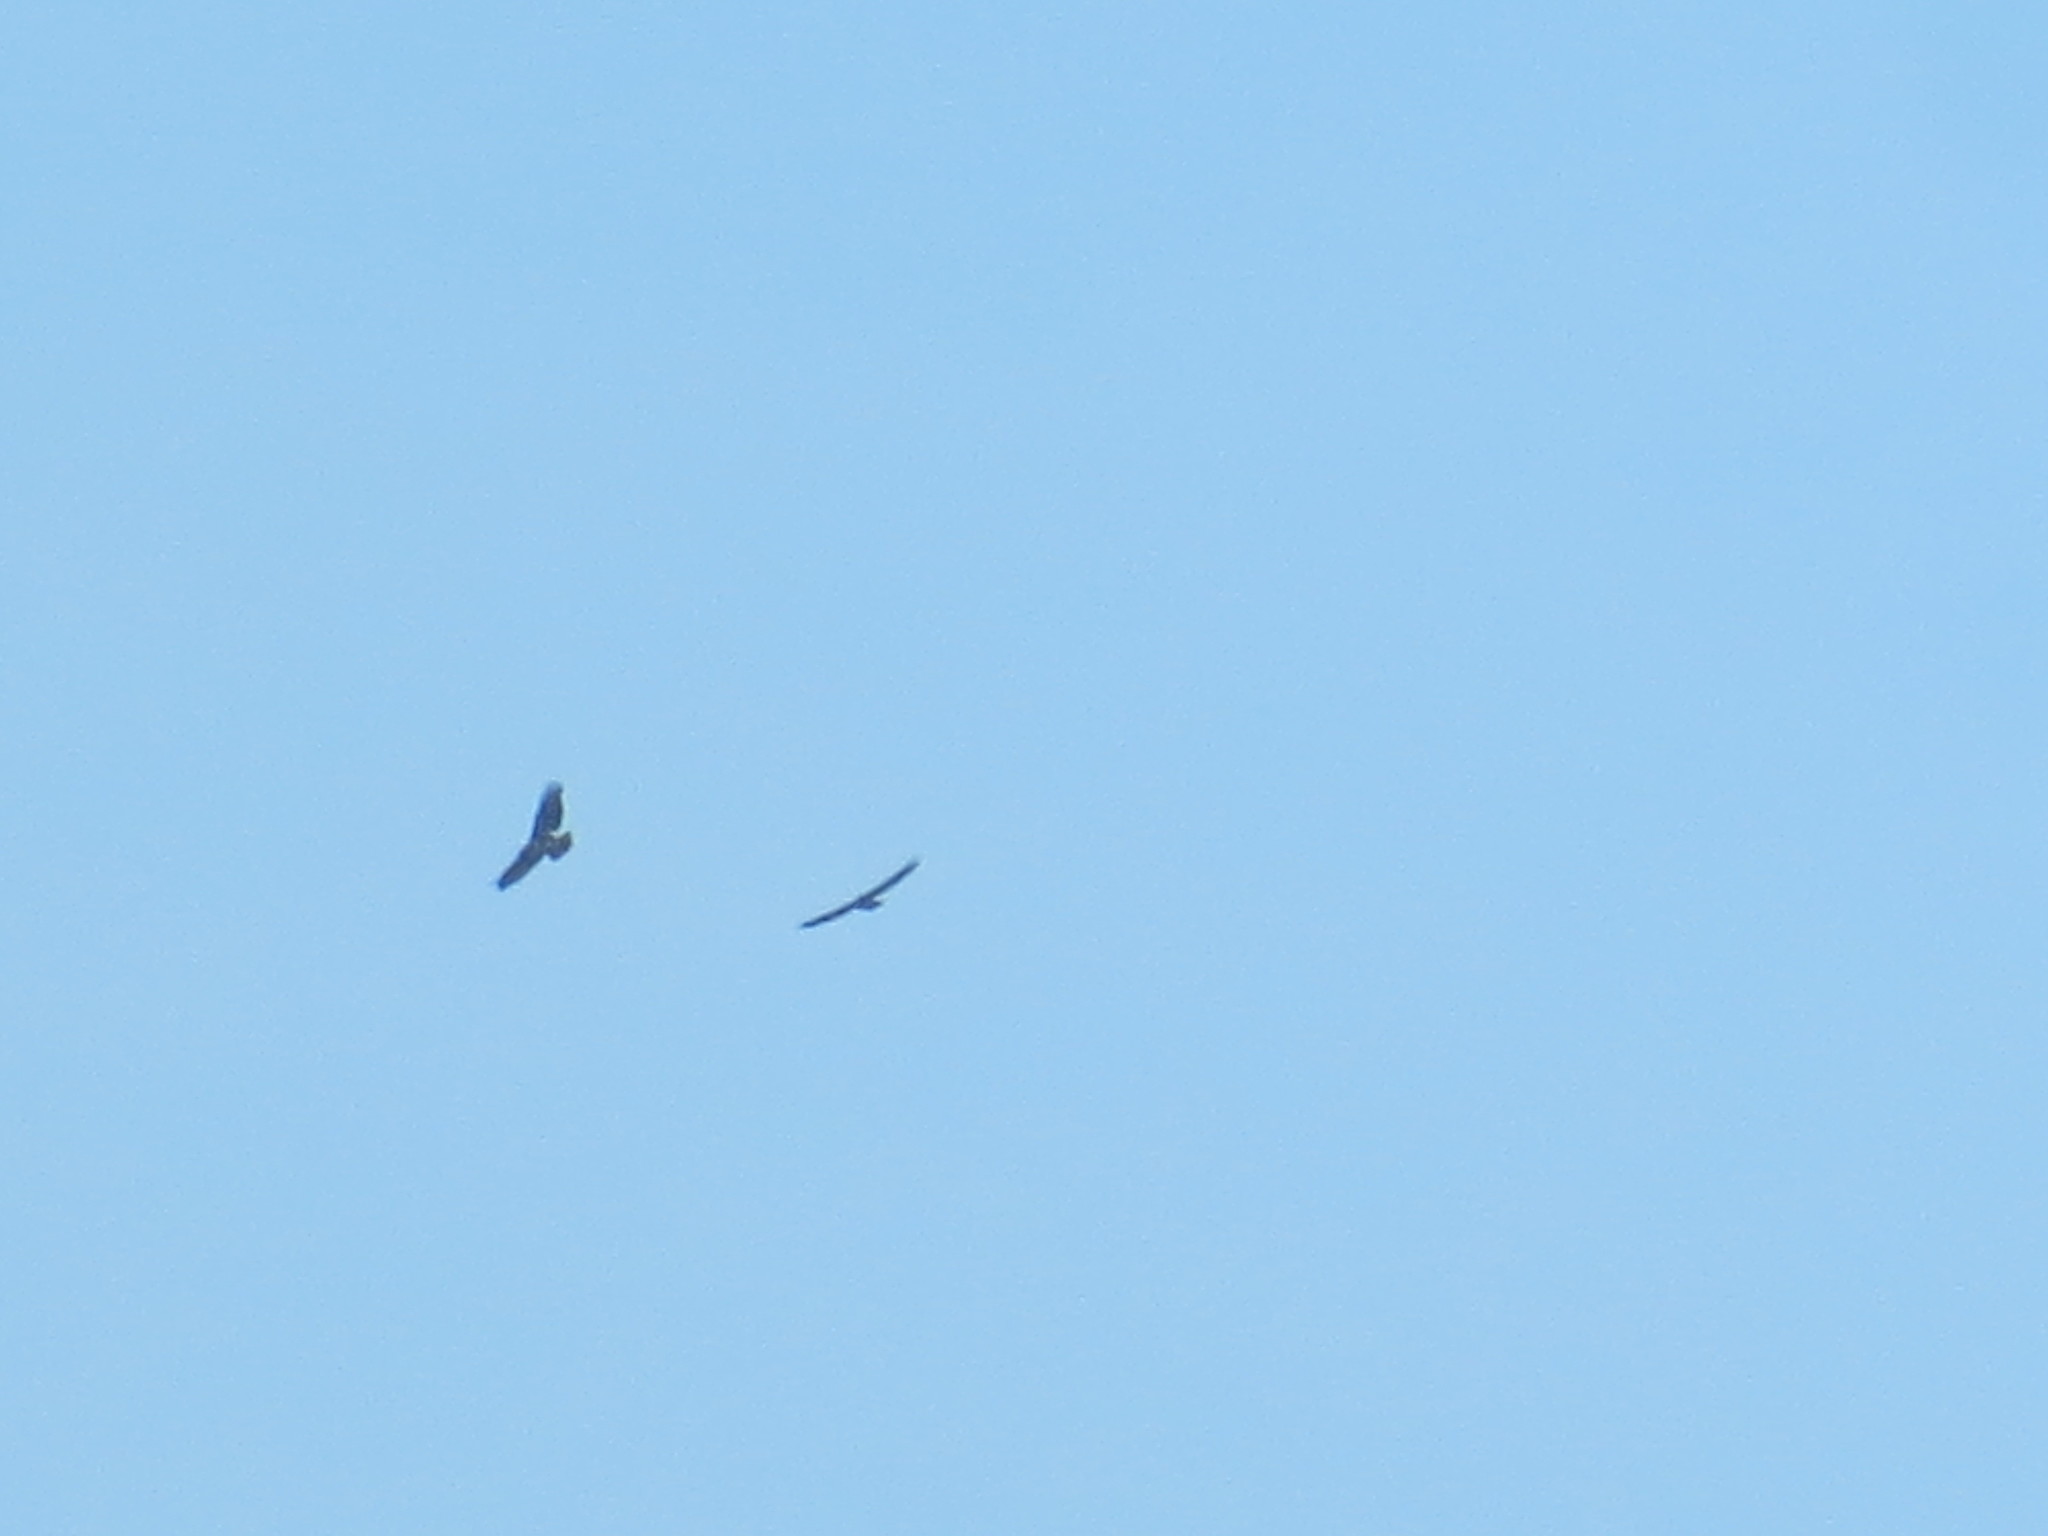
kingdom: Animalia
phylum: Chordata
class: Aves
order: Accipitriformes
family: Accipitridae
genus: Ictinia
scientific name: Ictinia mississippiensis
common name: Mississippi kite
